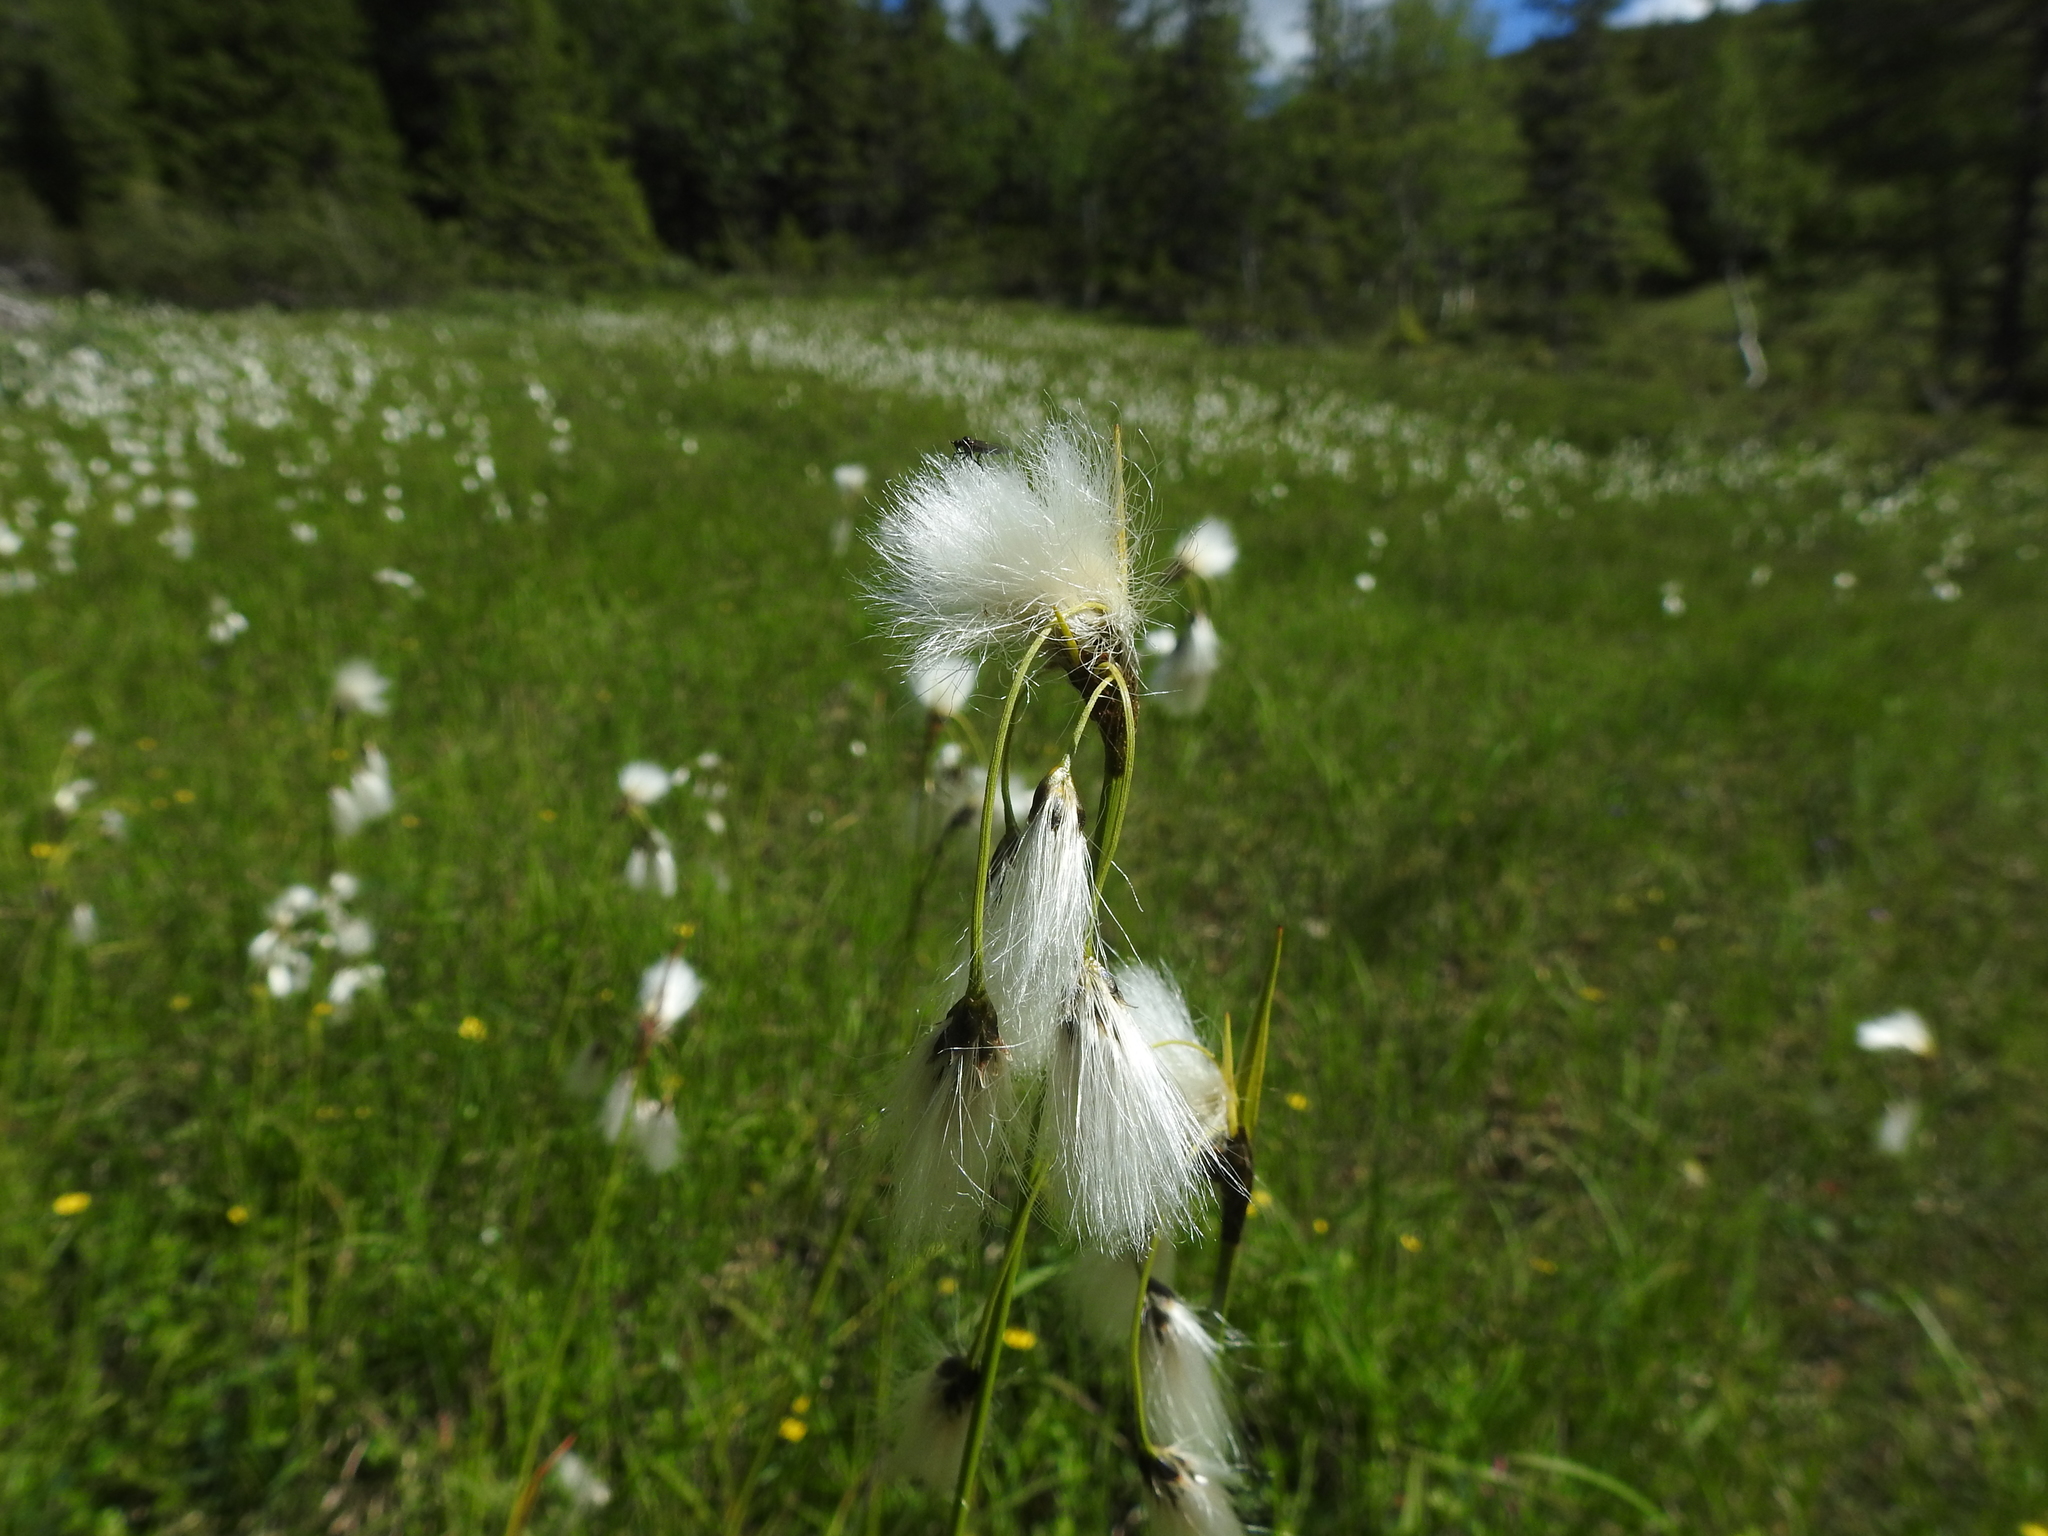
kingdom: Plantae
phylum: Tracheophyta
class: Liliopsida
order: Poales
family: Cyperaceae
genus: Eriophorum
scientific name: Eriophorum latifolium
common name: Broad-leaved cottongrass
